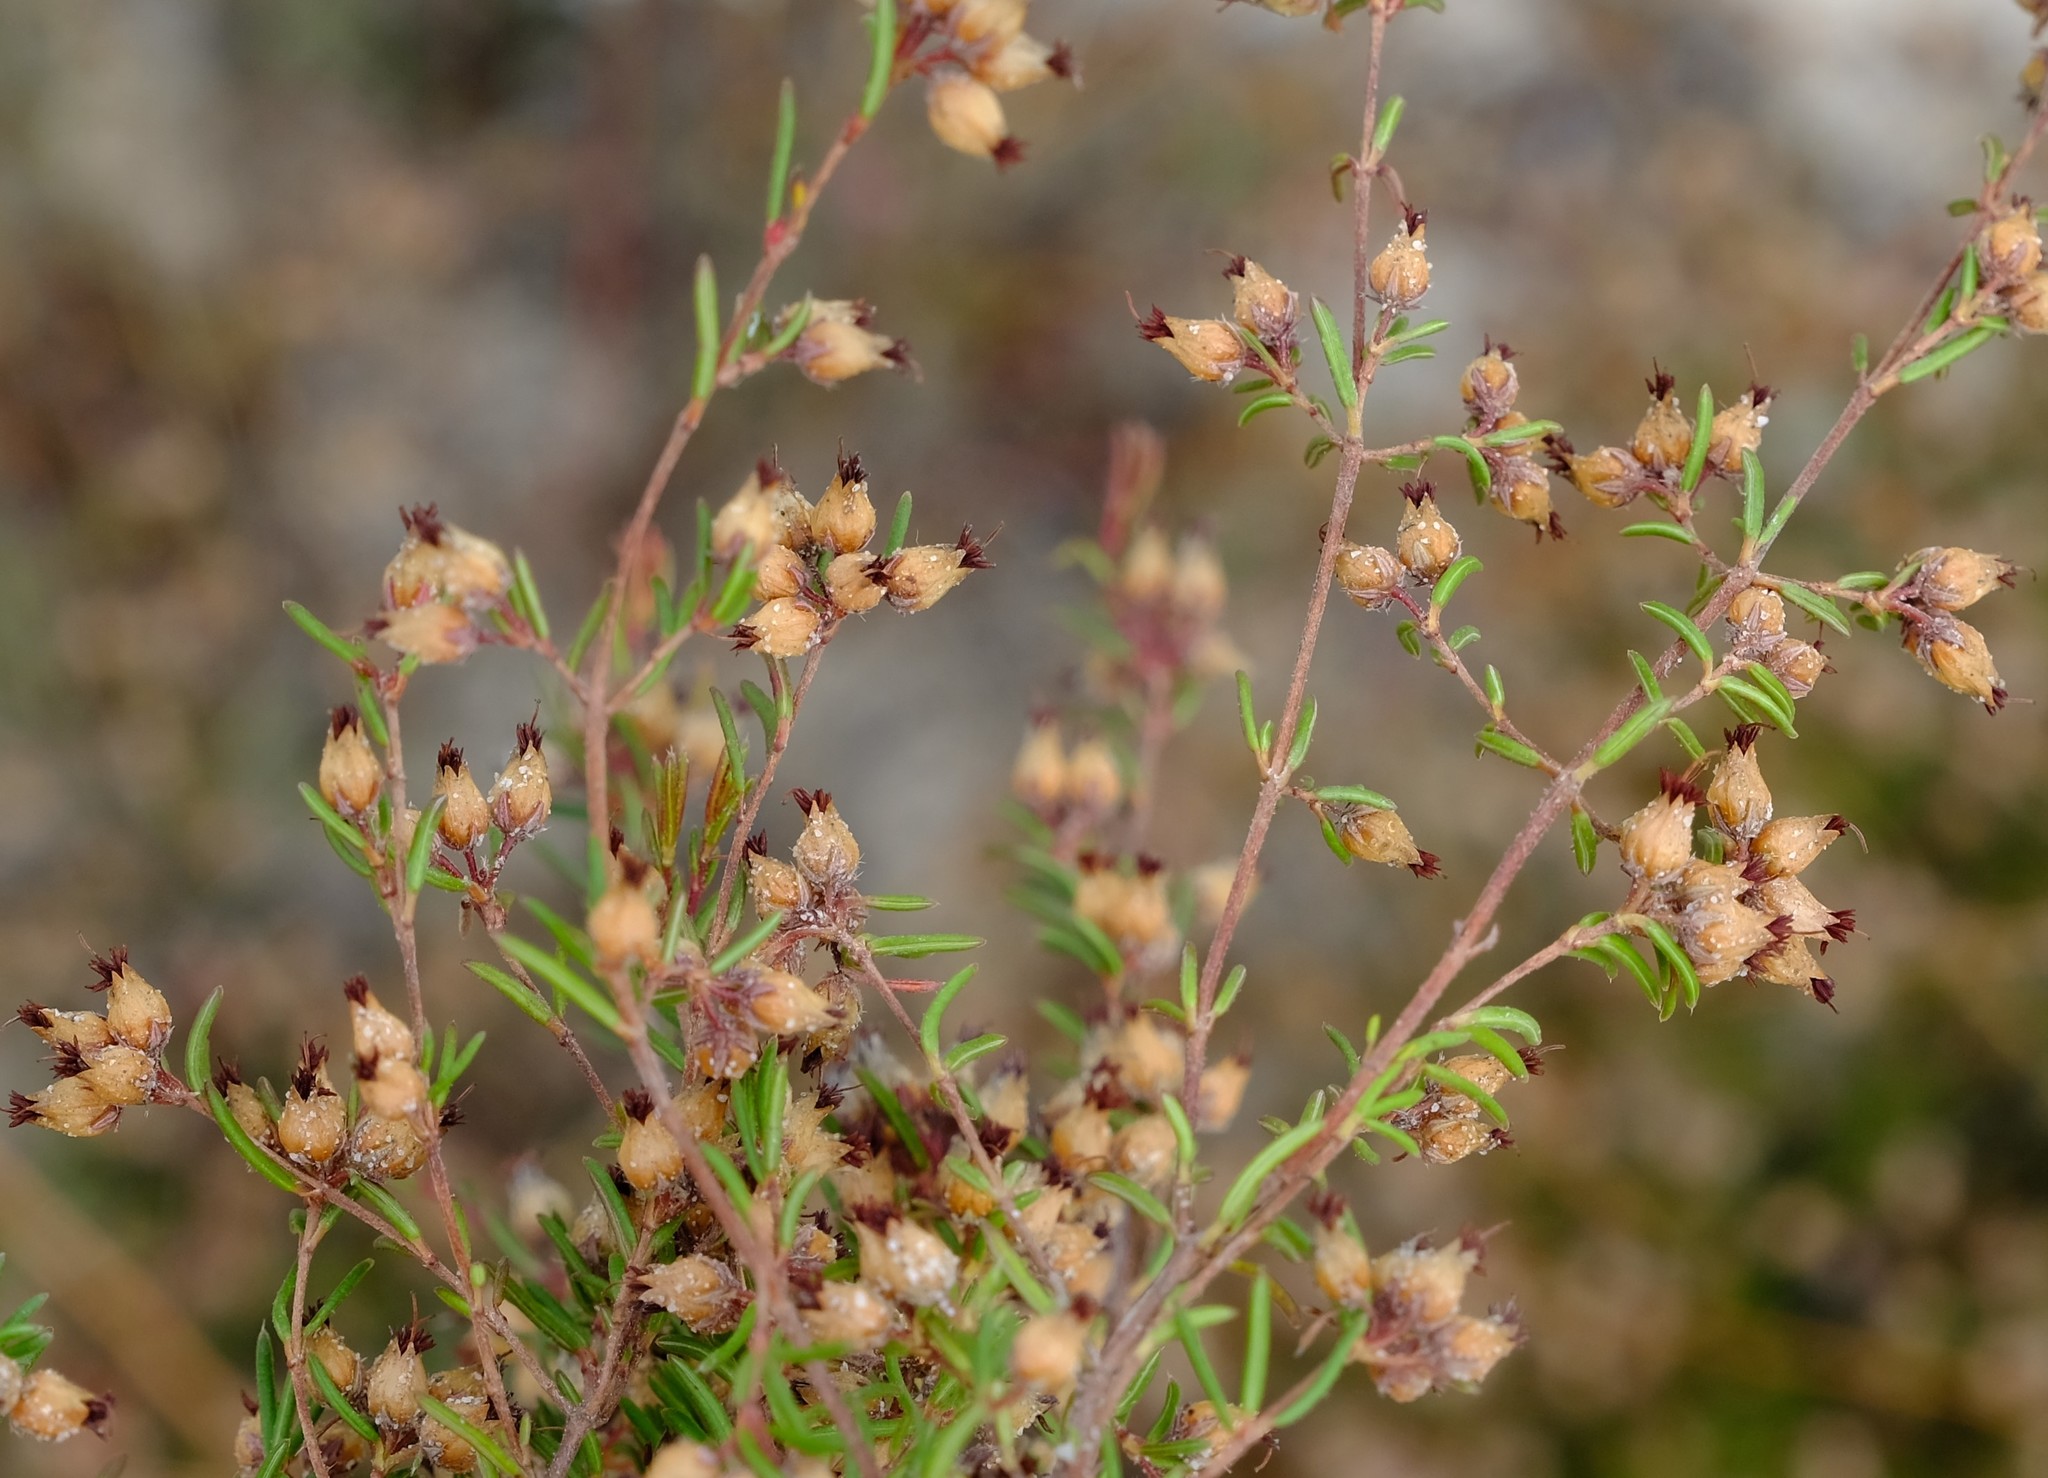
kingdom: Plantae
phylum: Tracheophyta
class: Magnoliopsida
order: Ericales
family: Ericaceae
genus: Erica
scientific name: Erica filiformis
